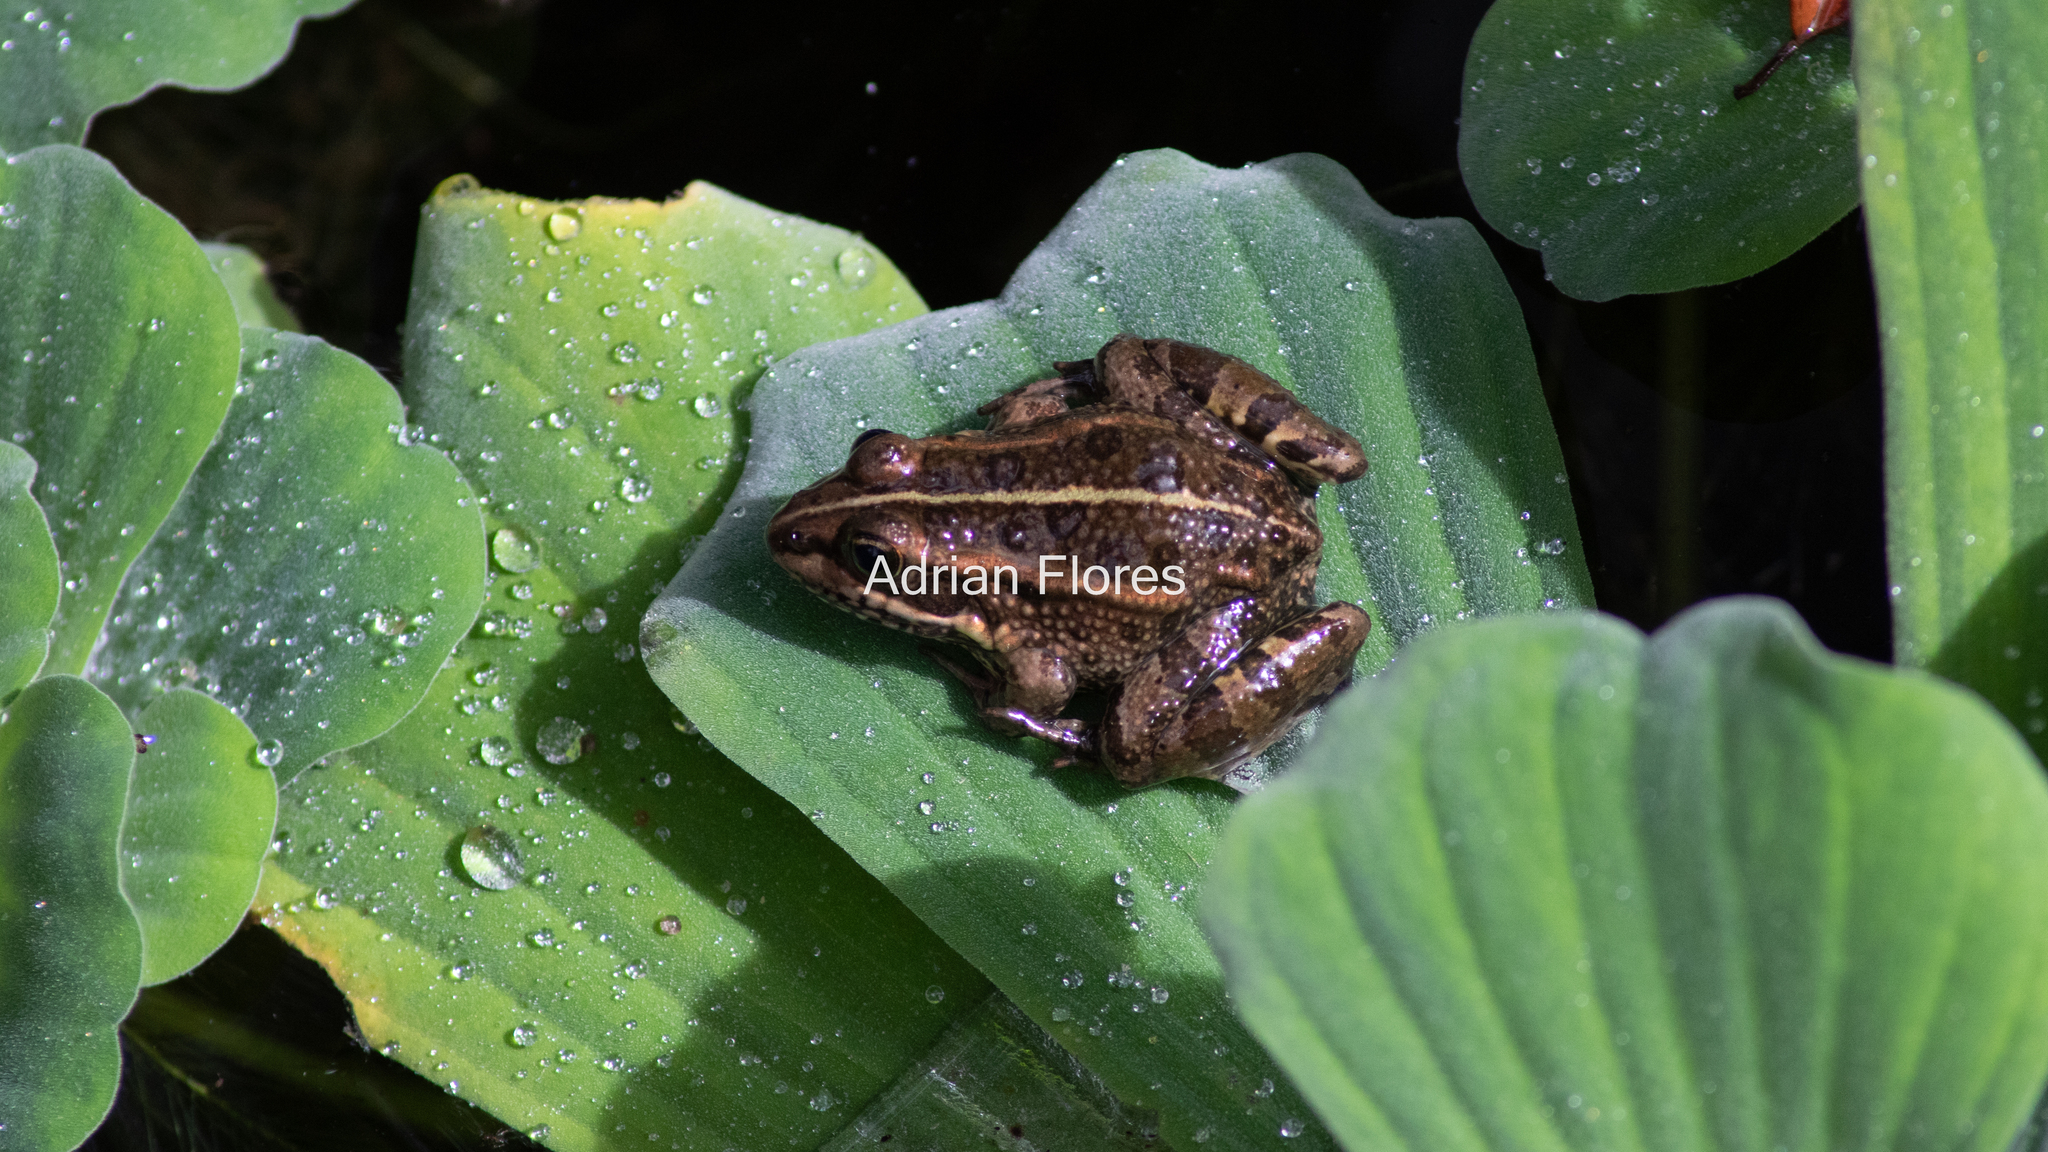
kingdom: Animalia
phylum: Chordata
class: Amphibia
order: Anura
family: Ranidae
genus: Pelophylax
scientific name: Pelophylax perezi
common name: Perez's frog
